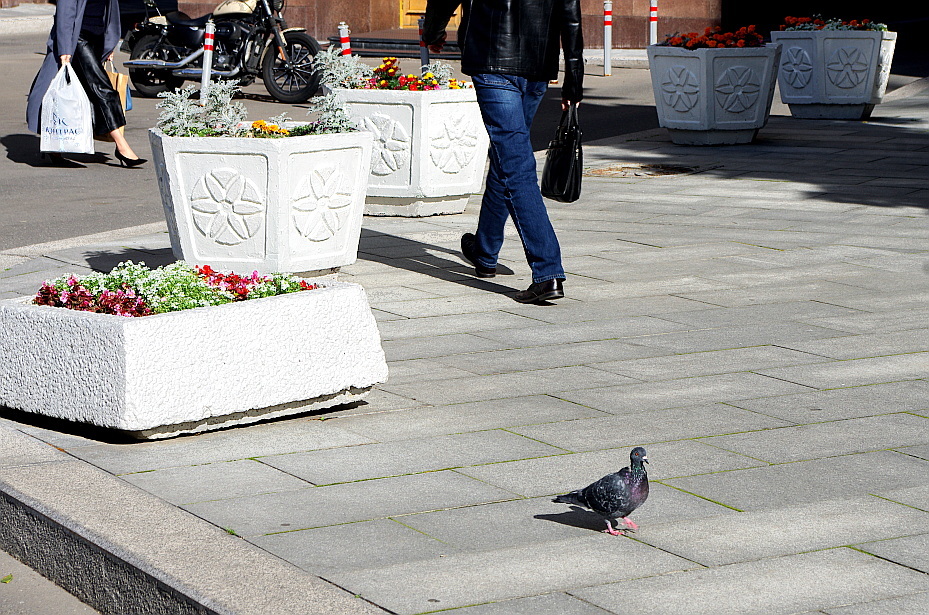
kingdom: Animalia
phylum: Chordata
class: Aves
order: Columbiformes
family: Columbidae
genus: Columba
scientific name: Columba livia
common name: Rock pigeon
